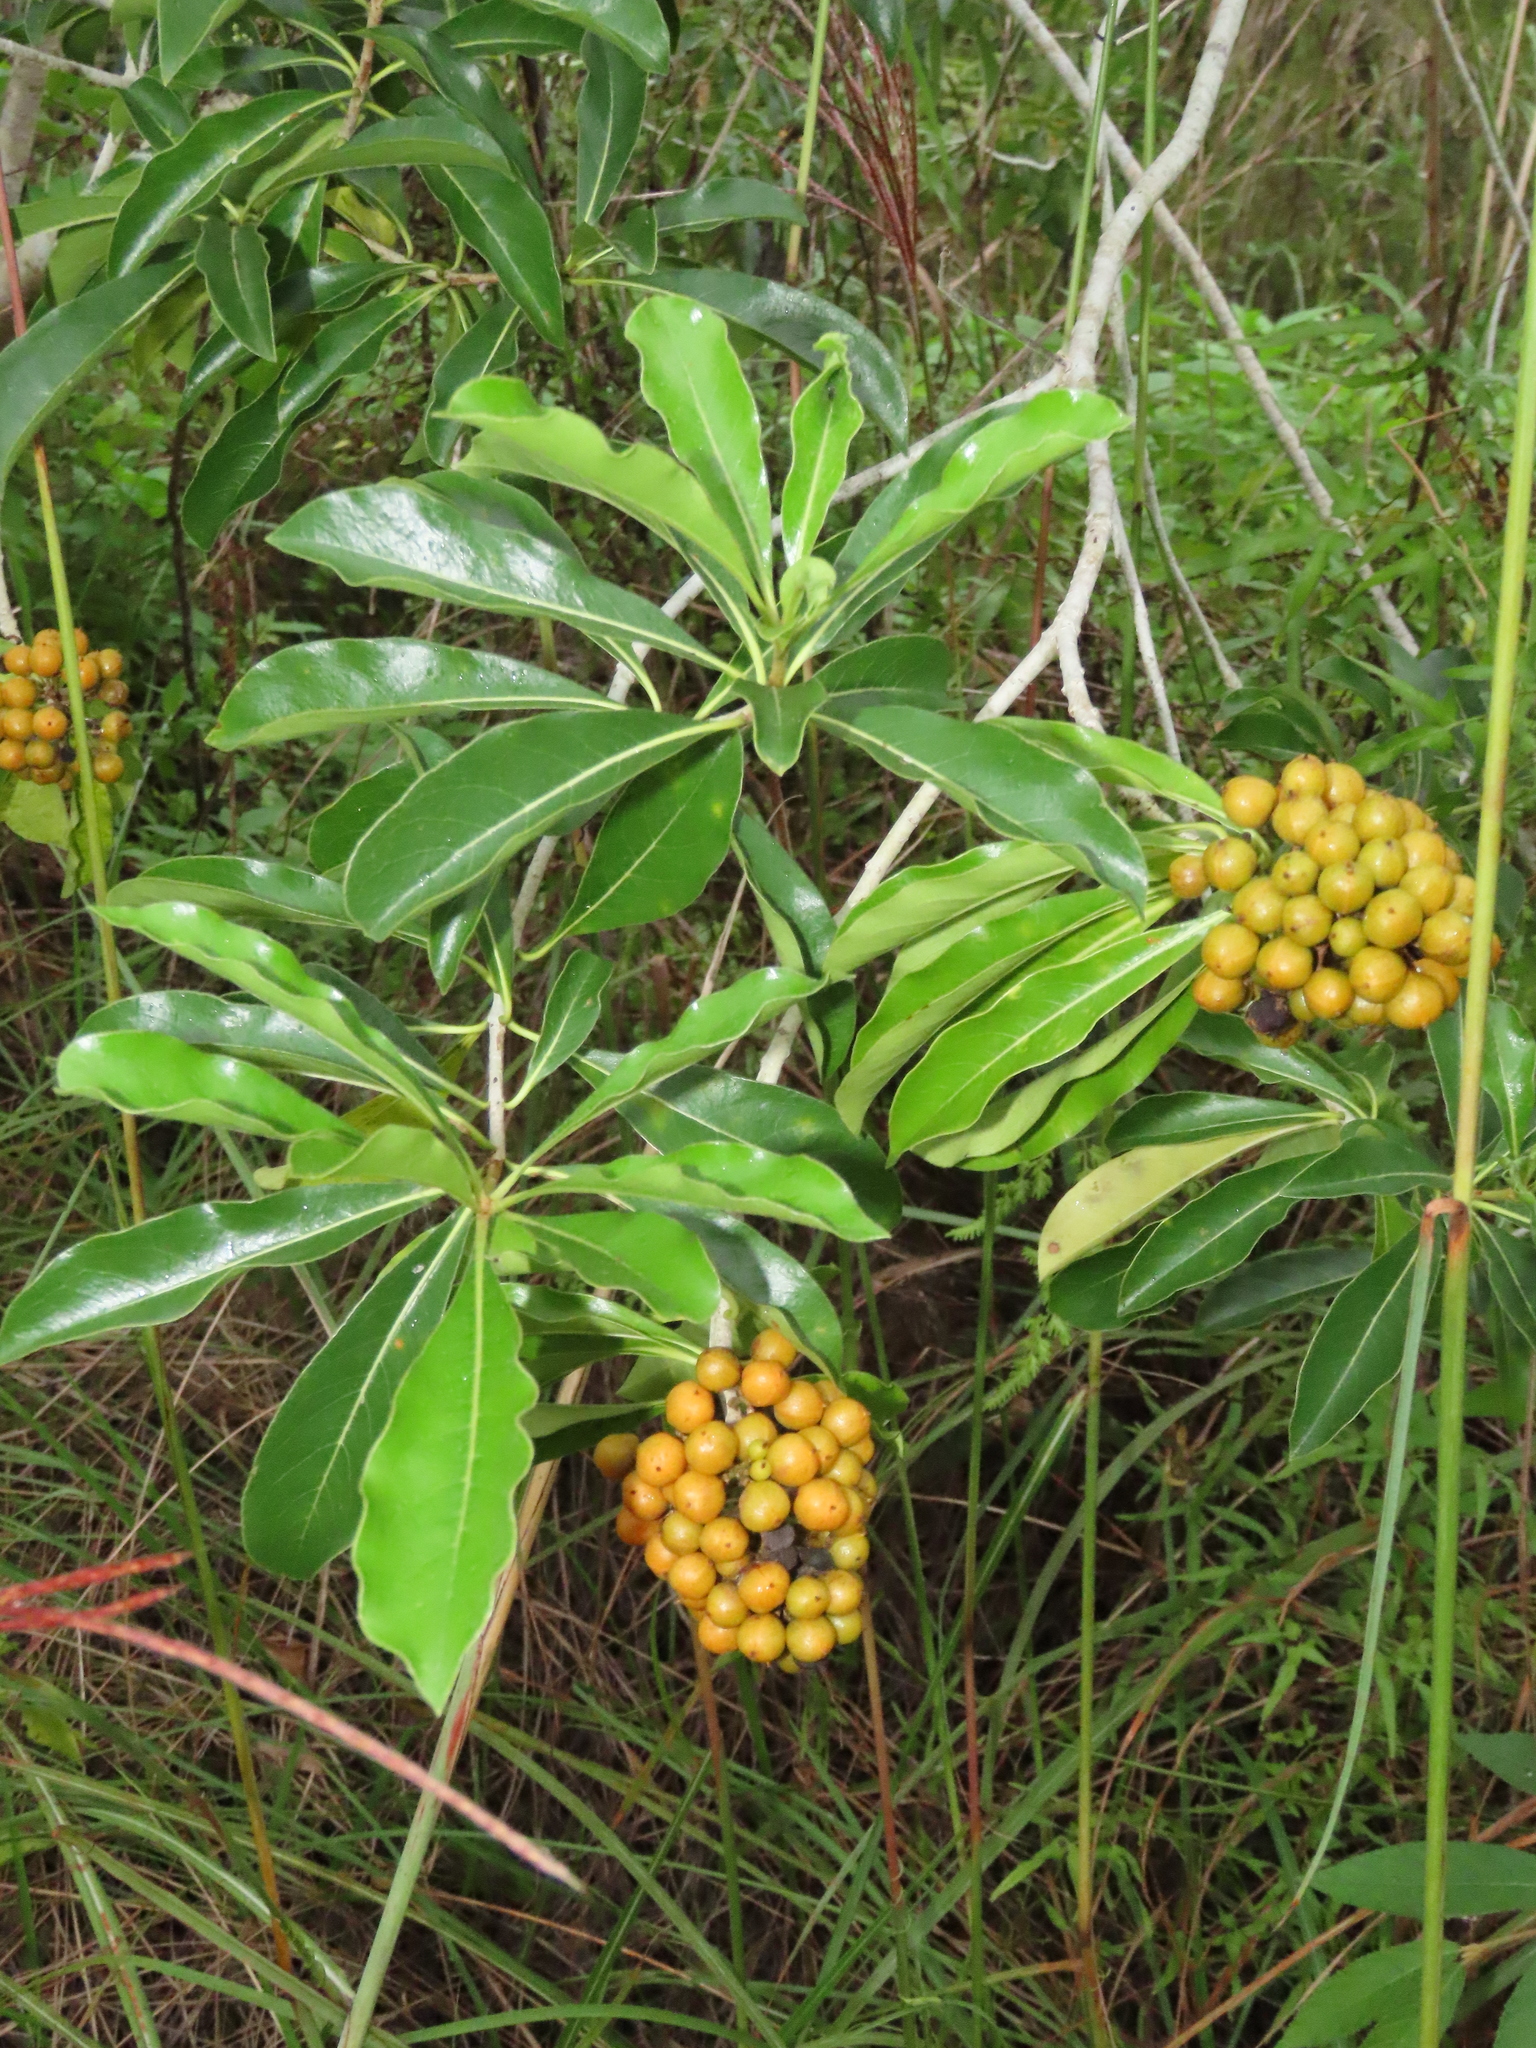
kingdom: Plantae
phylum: Tracheophyta
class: Magnoliopsida
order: Apiales
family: Pittosporaceae
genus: Pittosporum
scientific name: Pittosporum pentandrum
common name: Taiwanese cheesewood
